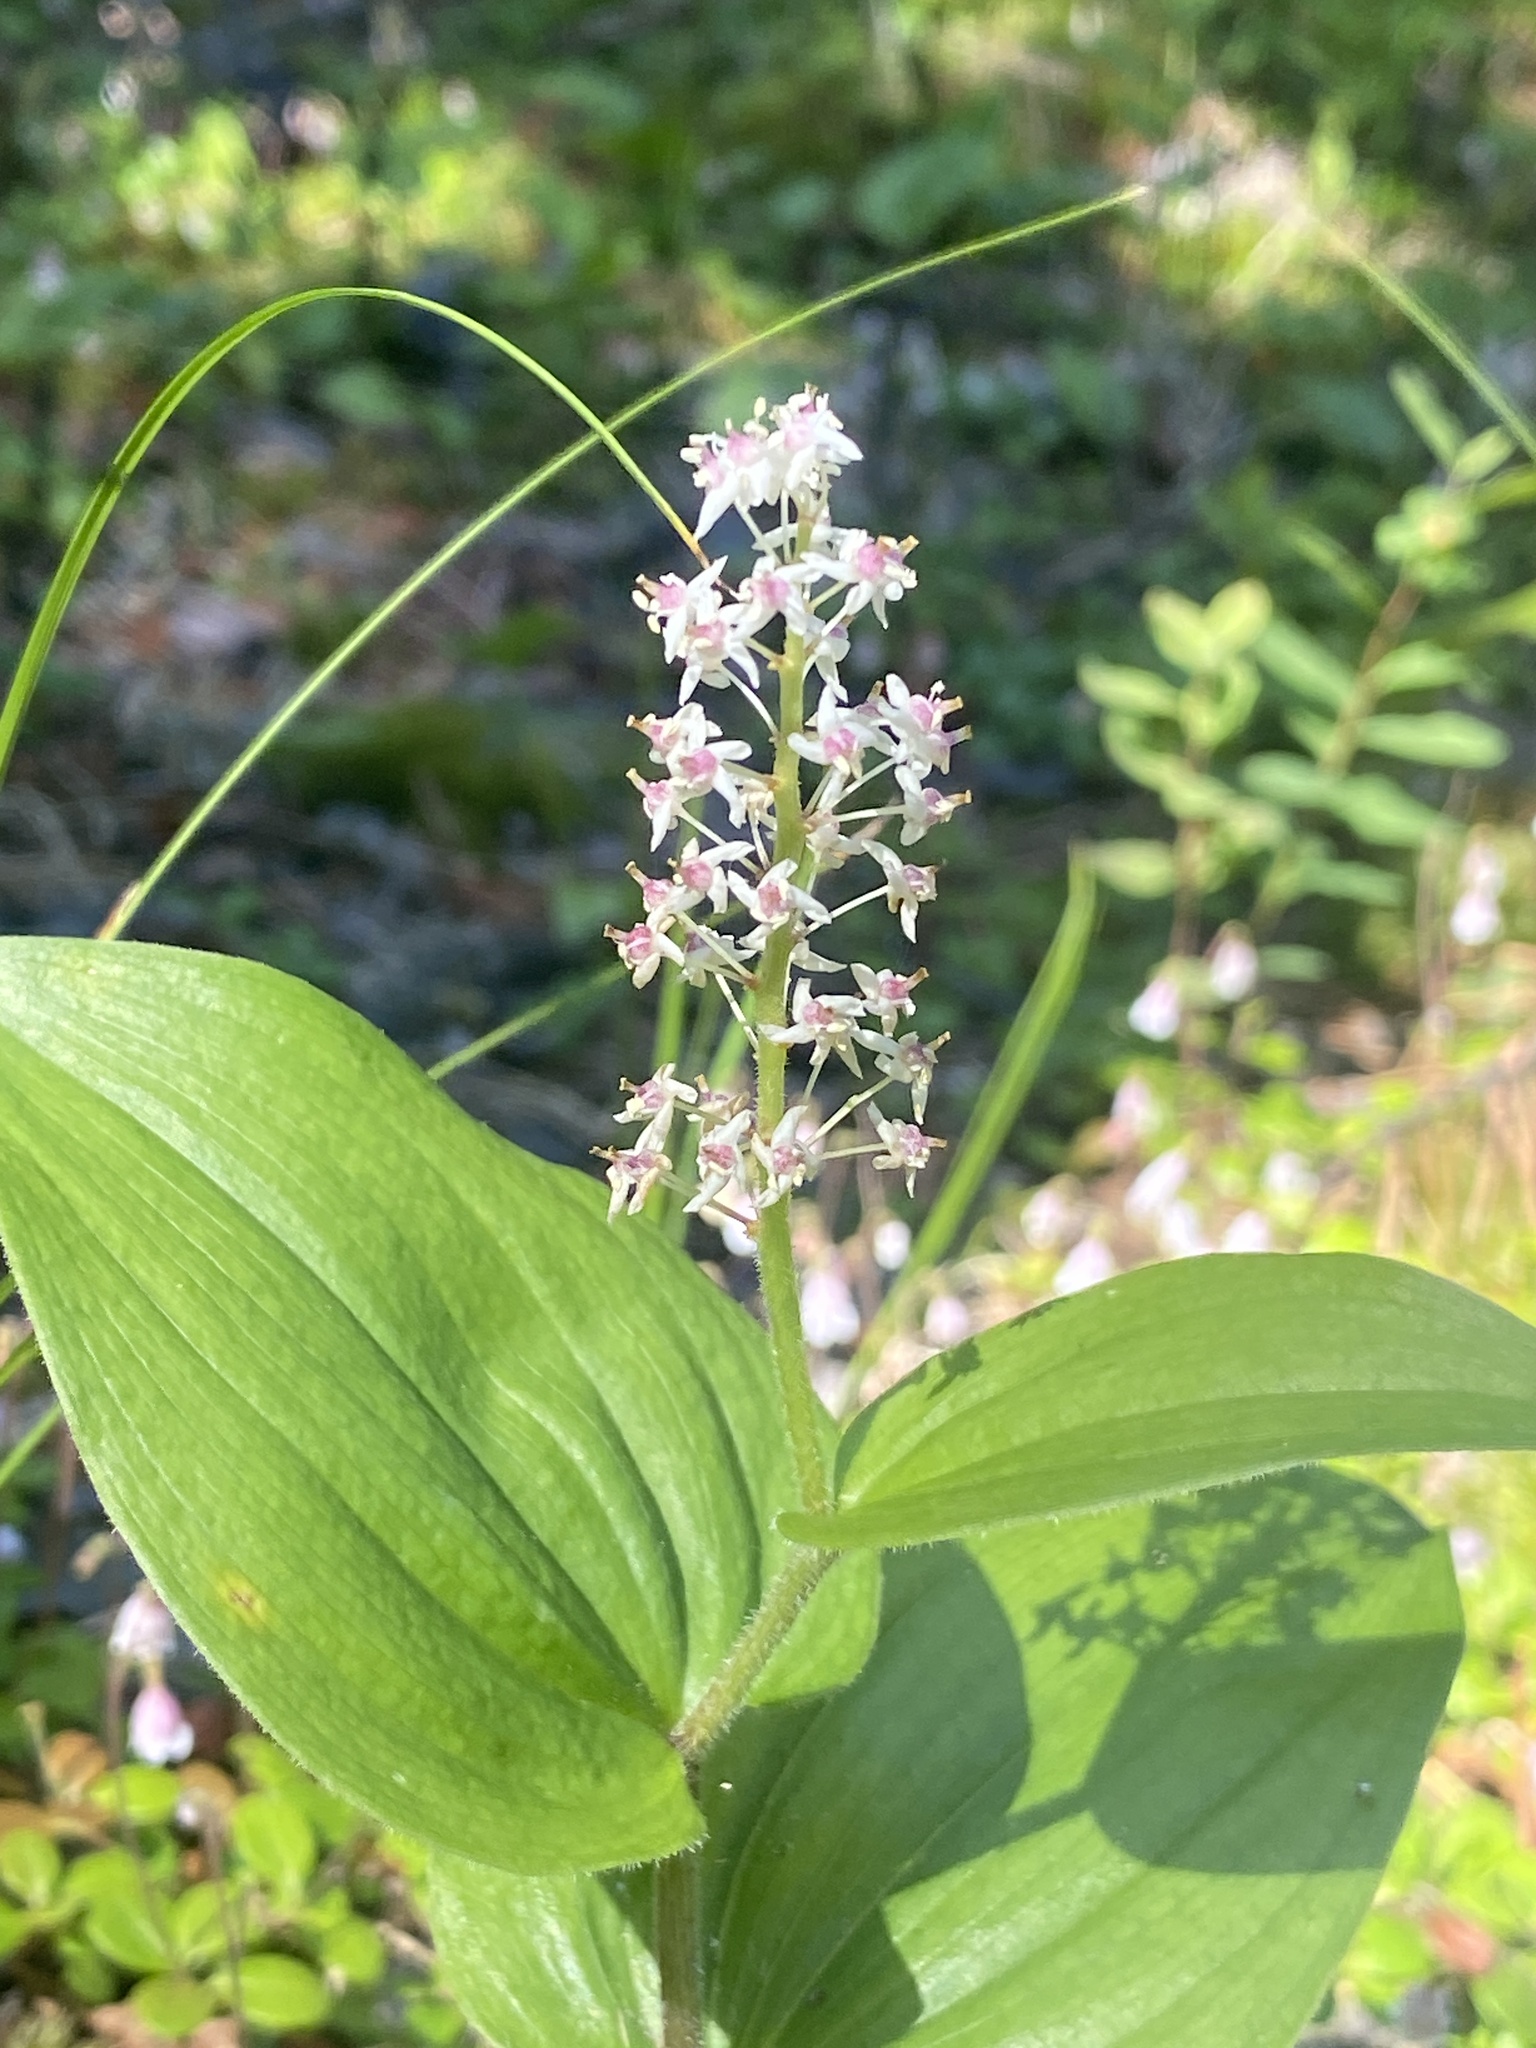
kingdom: Plantae
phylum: Tracheophyta
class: Liliopsida
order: Asparagales
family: Asparagaceae
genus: Maianthemum
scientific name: Maianthemum canadense
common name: False lily-of-the-valley
